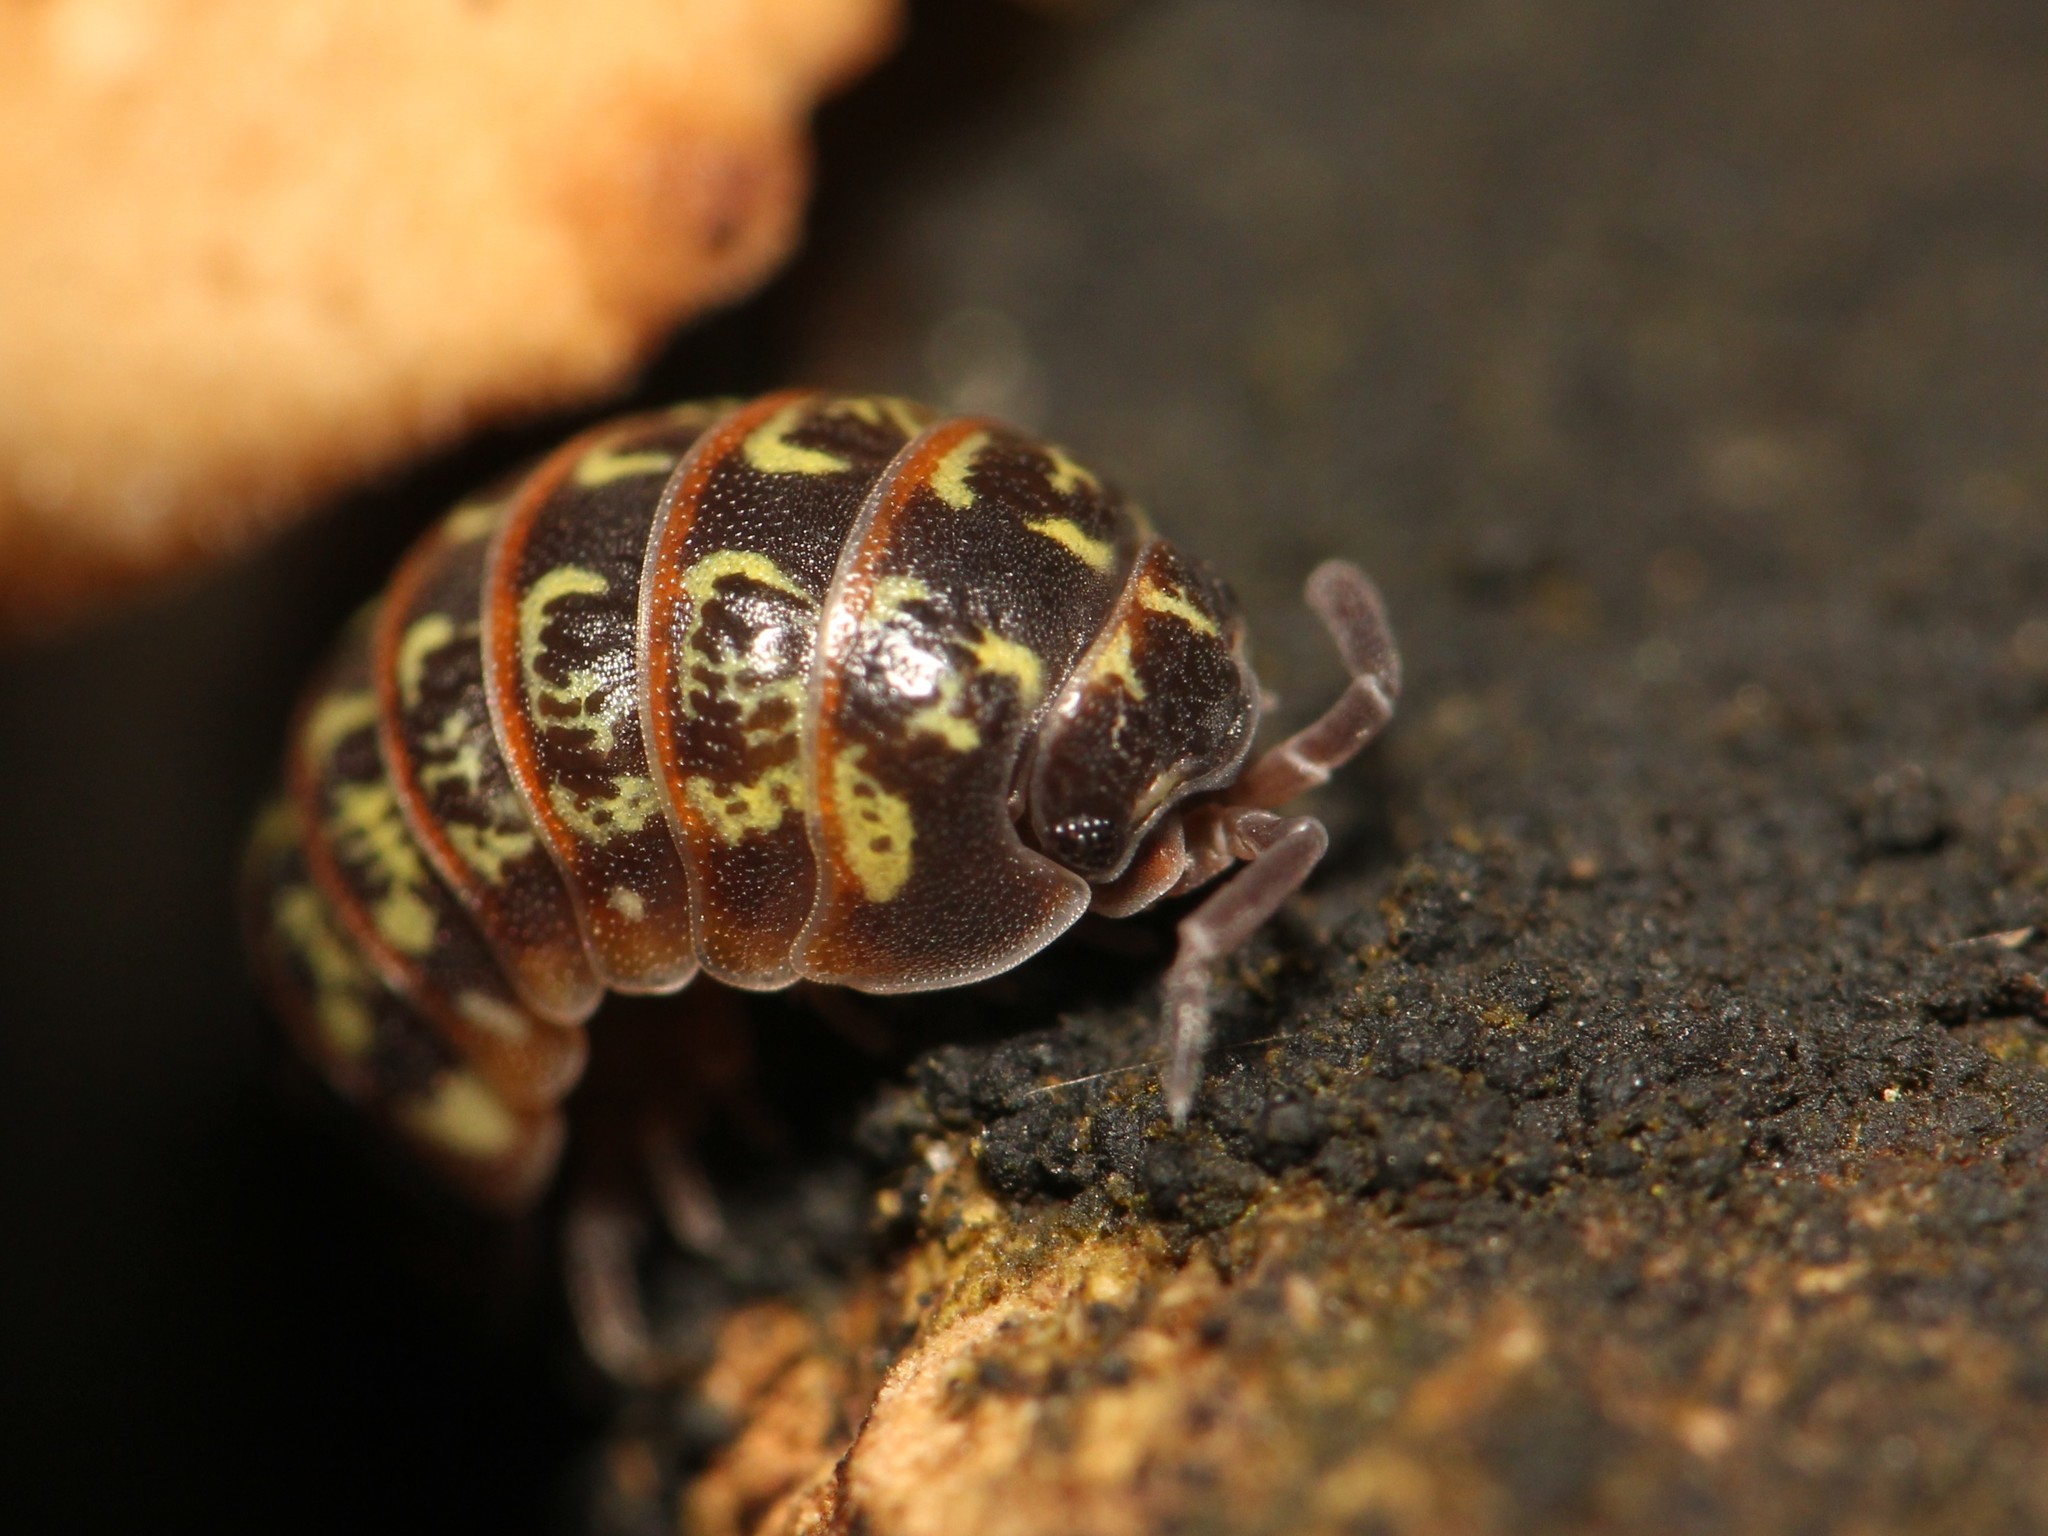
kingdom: Animalia
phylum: Arthropoda
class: Malacostraca
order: Isopoda
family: Armadillidiidae
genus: Armadillidium
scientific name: Armadillidium pulchellum
